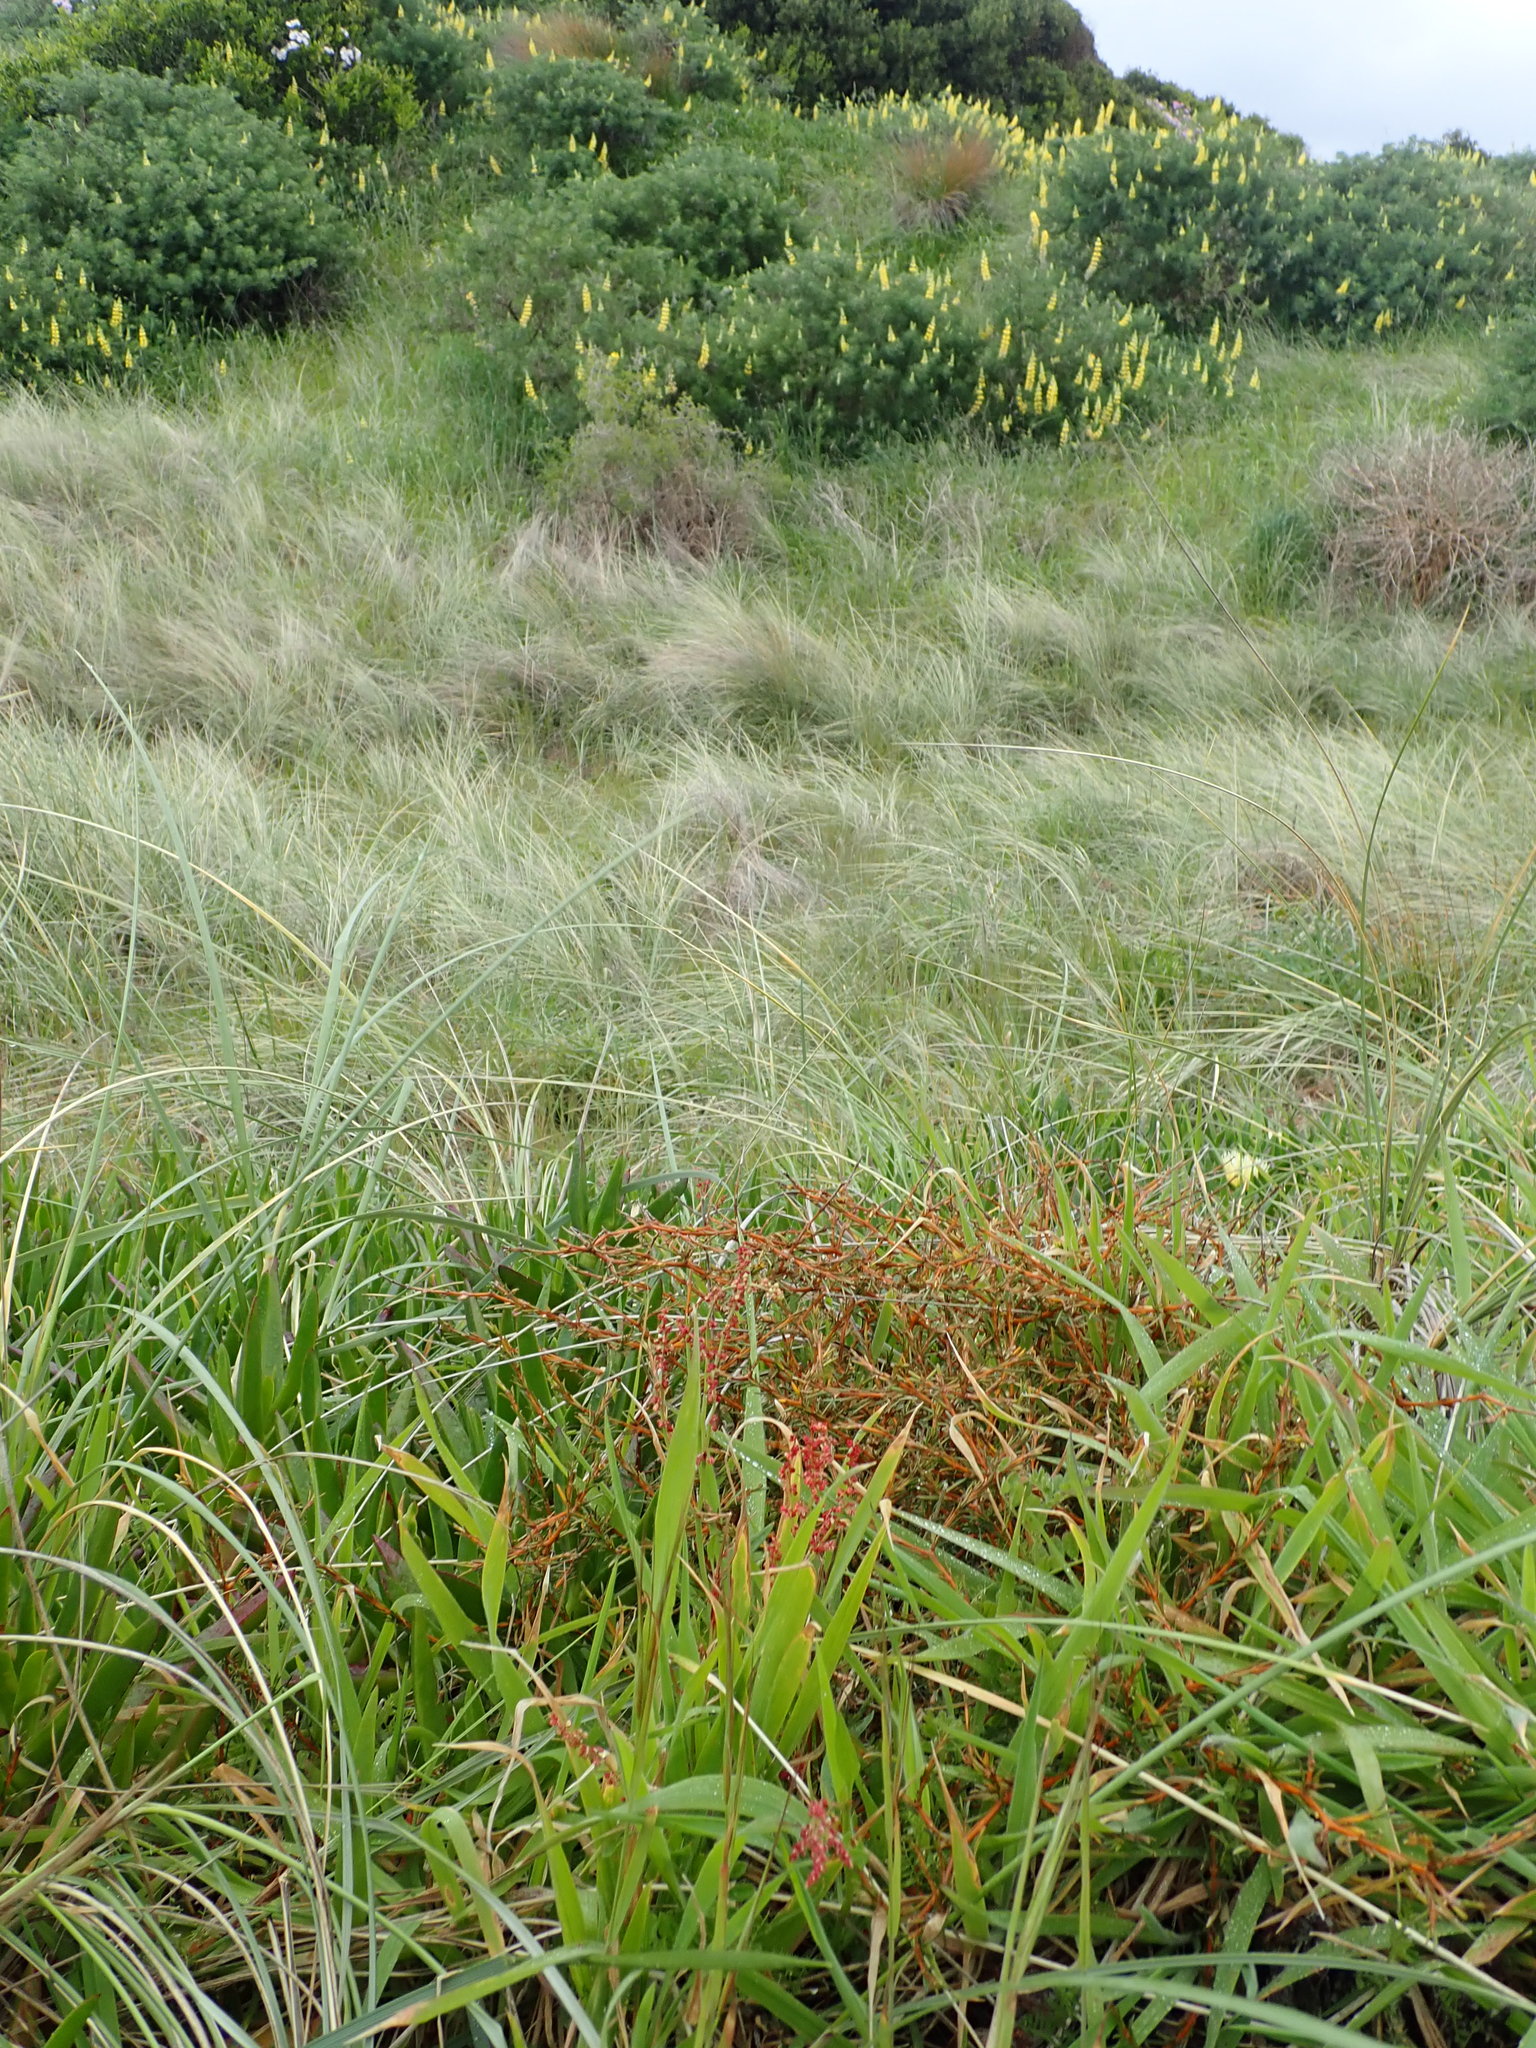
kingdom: Plantae
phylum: Tracheophyta
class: Magnoliopsida
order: Gentianales
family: Rubiaceae
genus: Coprosma
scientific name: Coprosma acerosa
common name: Sand coprosma
